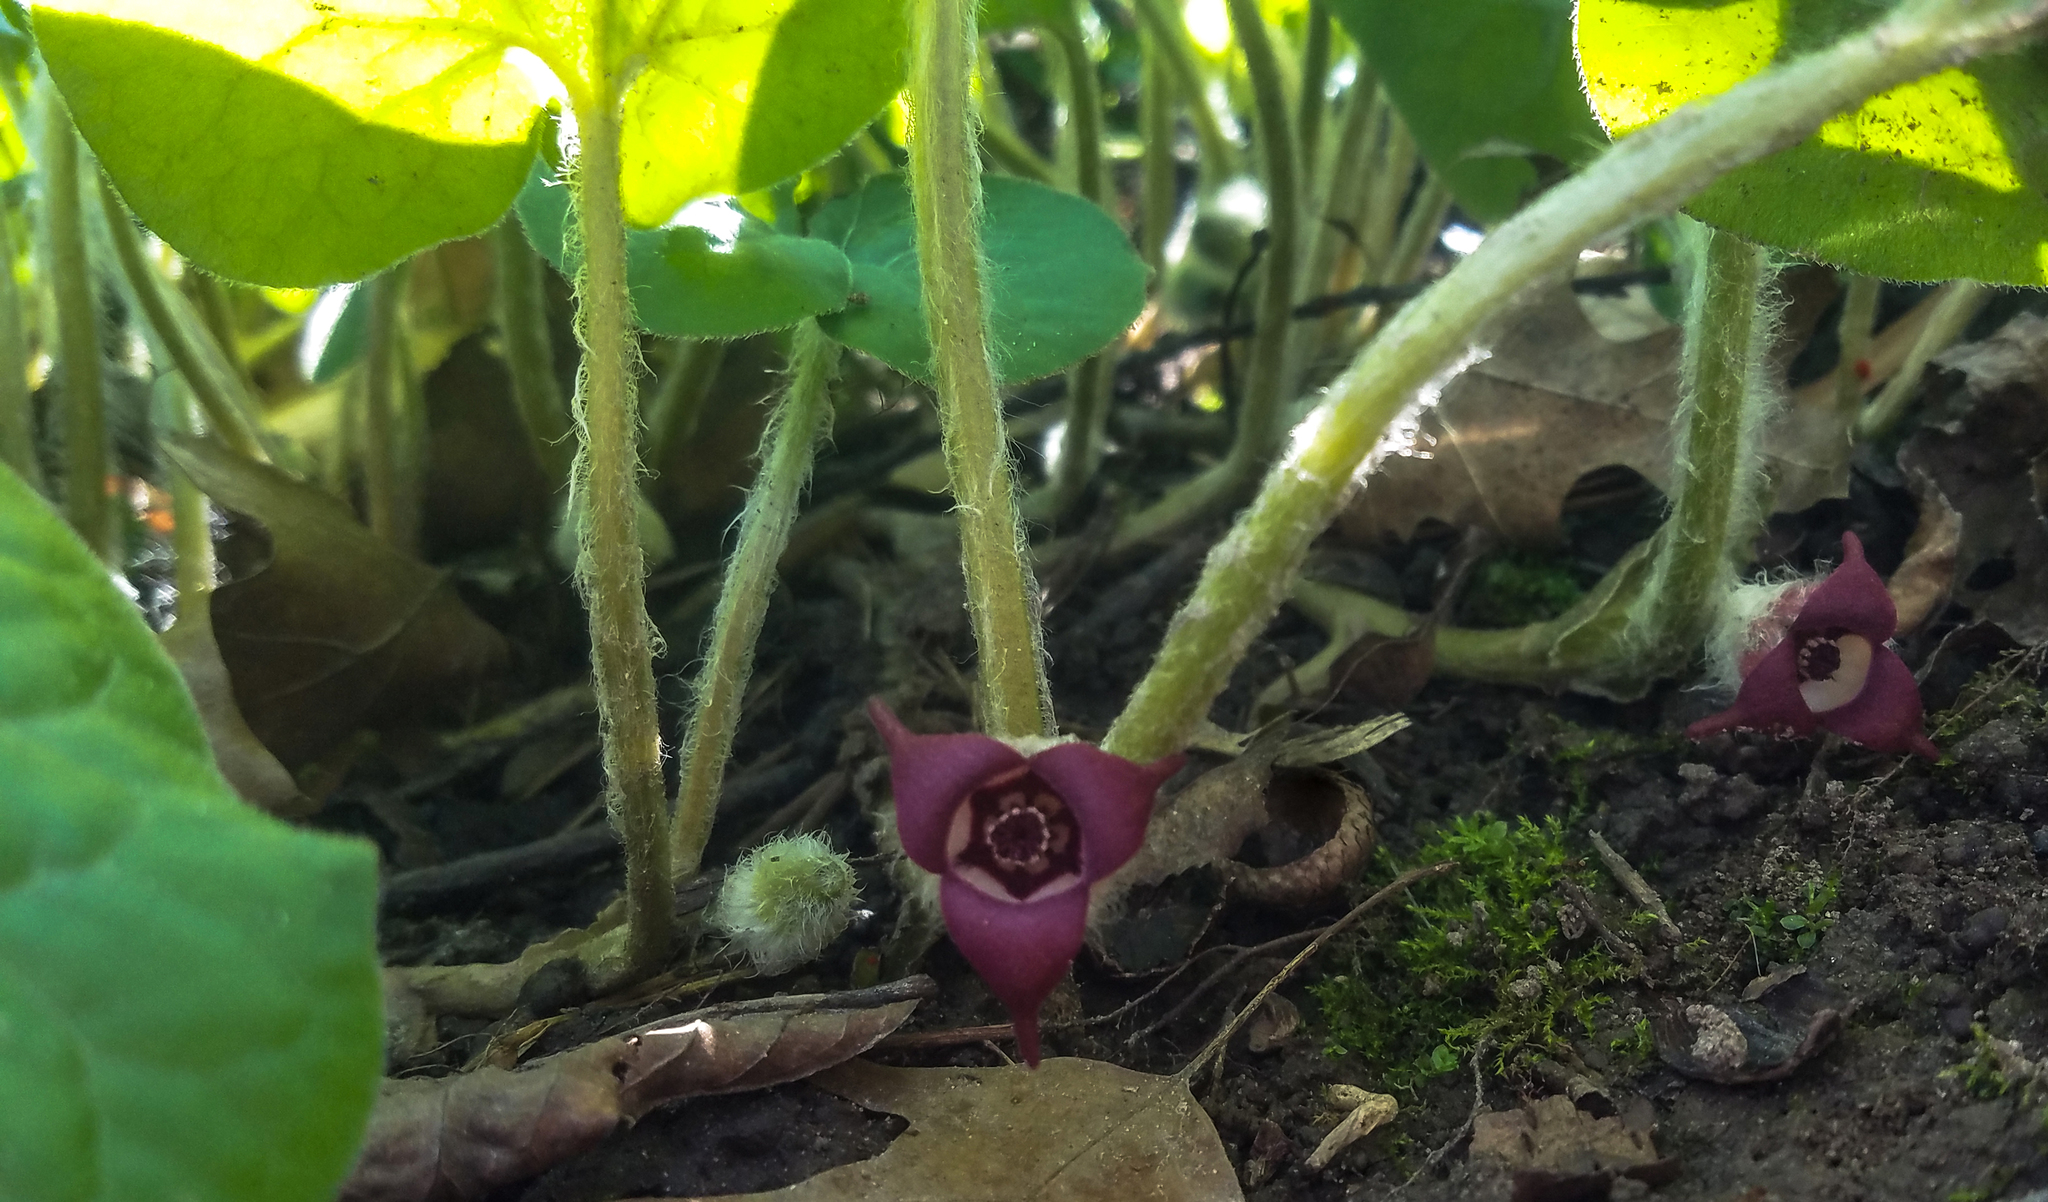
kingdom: Plantae
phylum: Tracheophyta
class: Magnoliopsida
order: Piperales
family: Aristolochiaceae
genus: Asarum
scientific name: Asarum canadense
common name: Wild ginger
